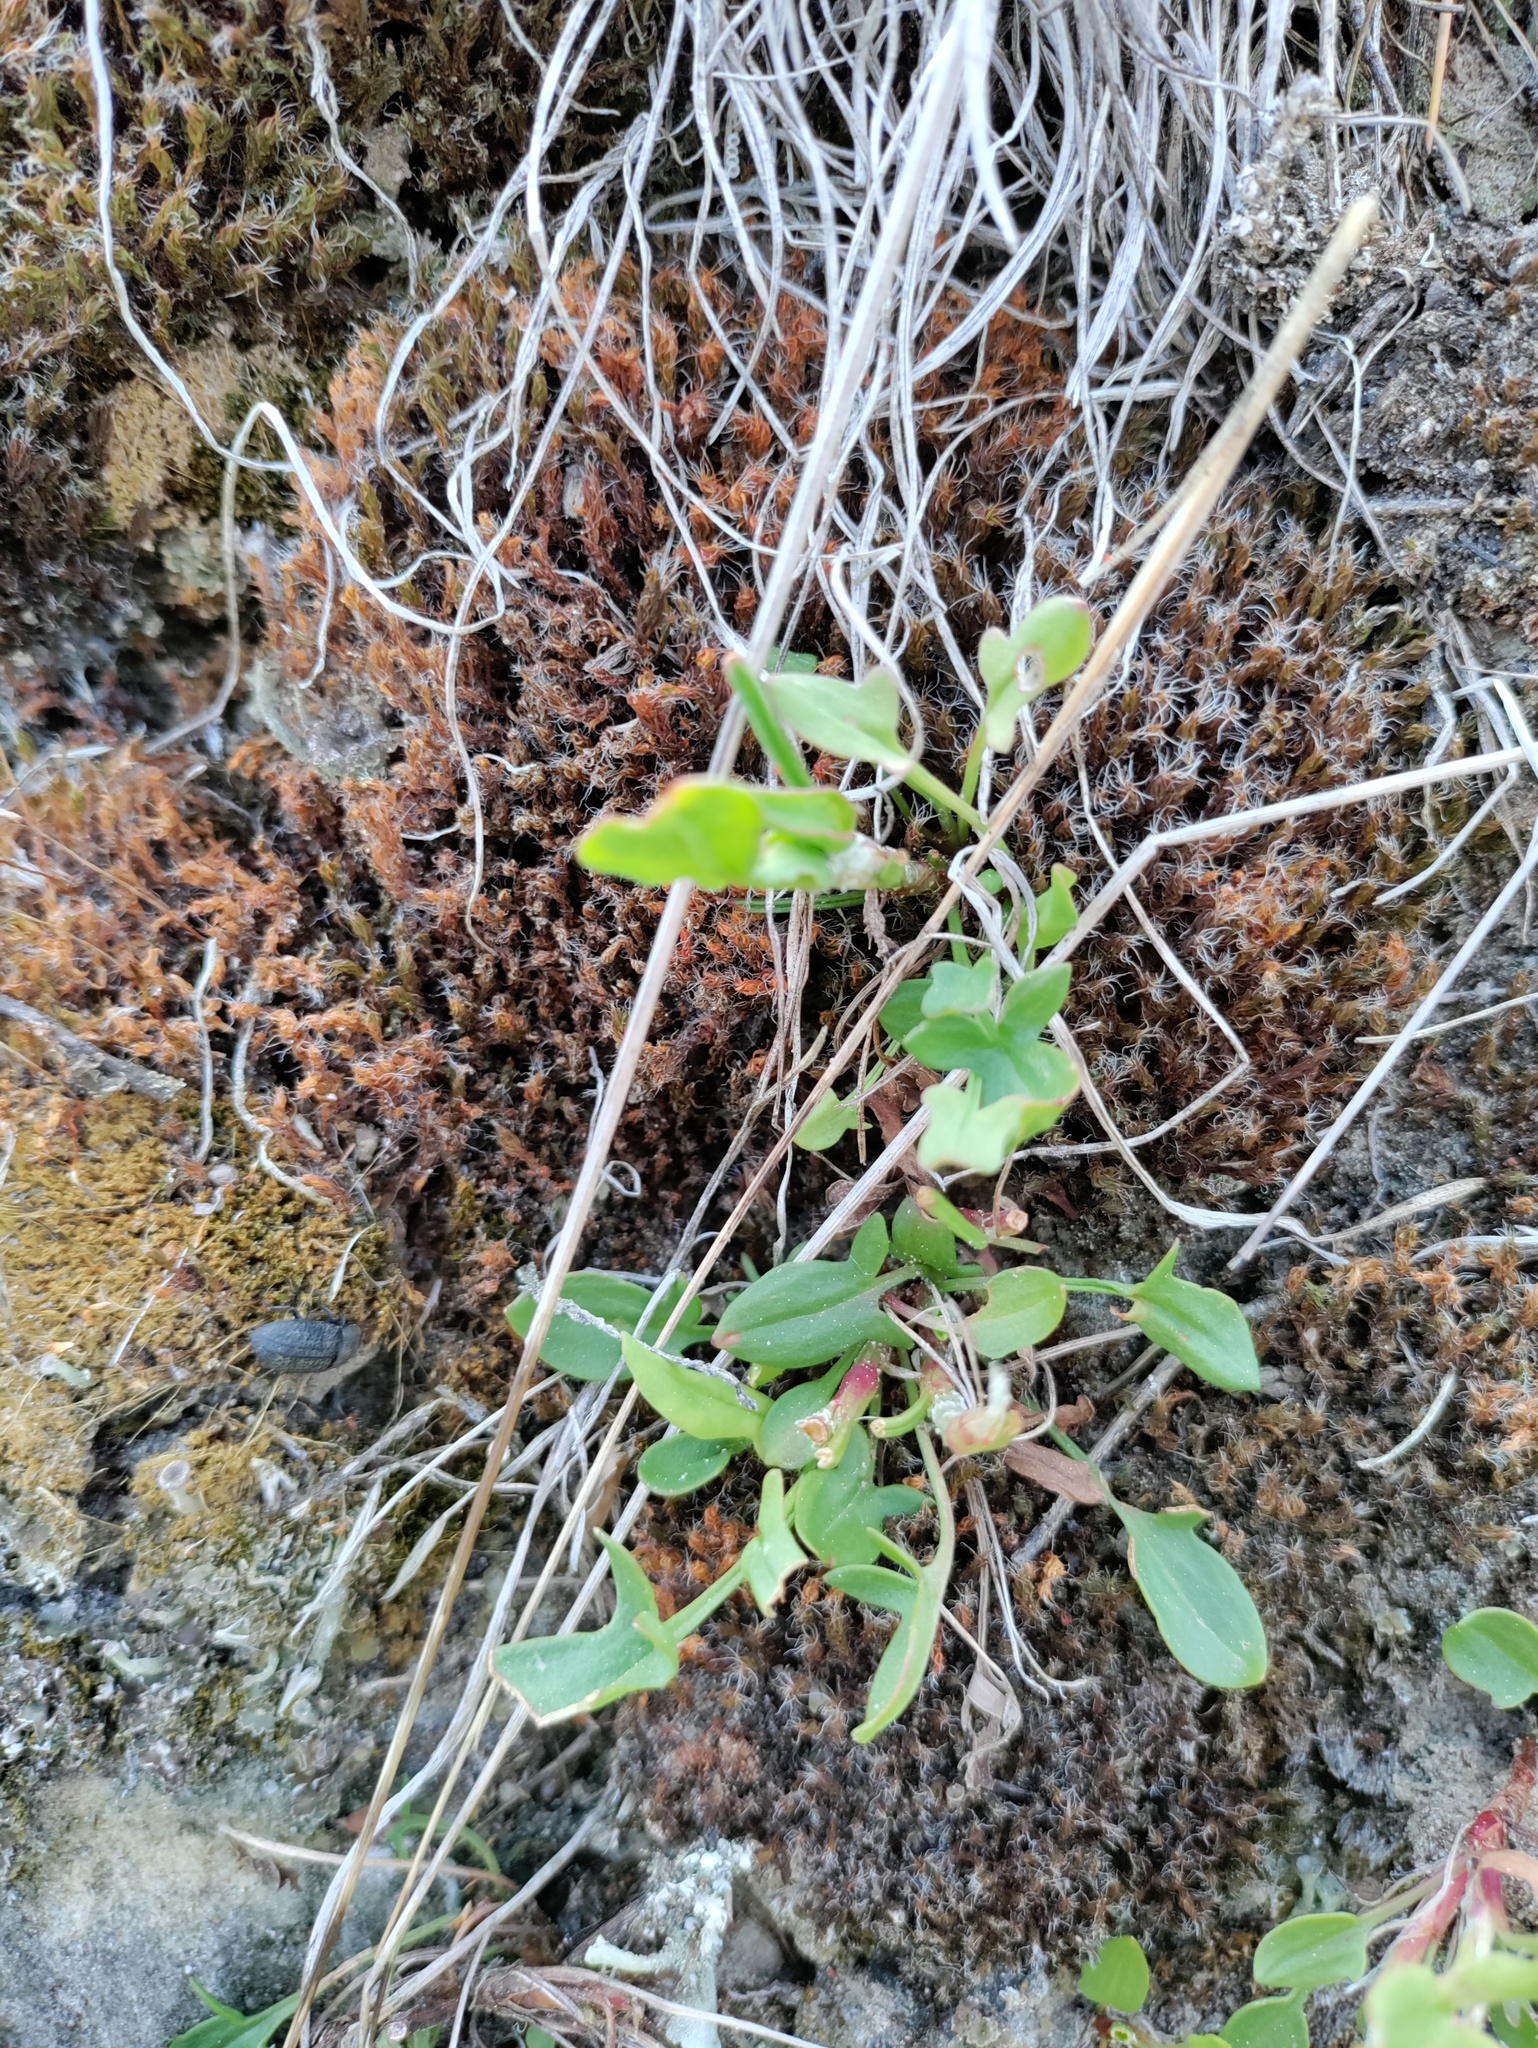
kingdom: Animalia
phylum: Arthropoda
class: Insecta
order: Coleoptera
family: Tenebrionidae
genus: Opatrum
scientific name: Opatrum sabulosum
